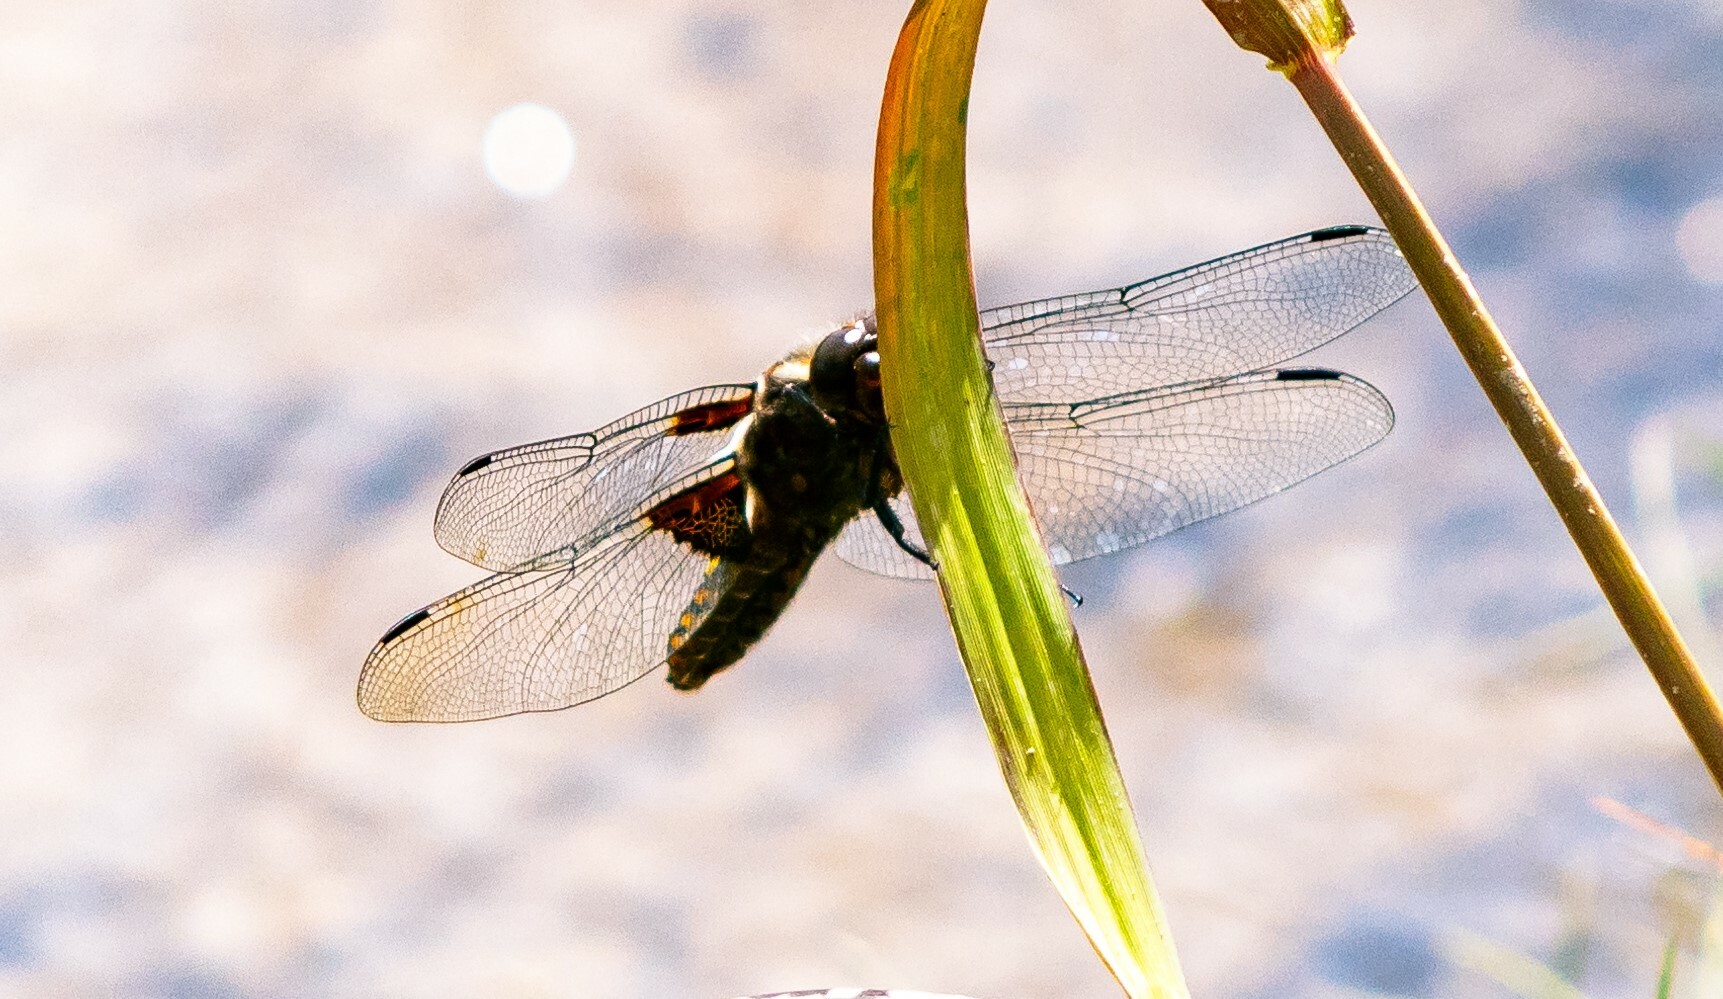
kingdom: Animalia
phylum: Arthropoda
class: Insecta
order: Odonata
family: Libellulidae
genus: Libellula
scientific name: Libellula depressa
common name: Broad-bodied chaser
